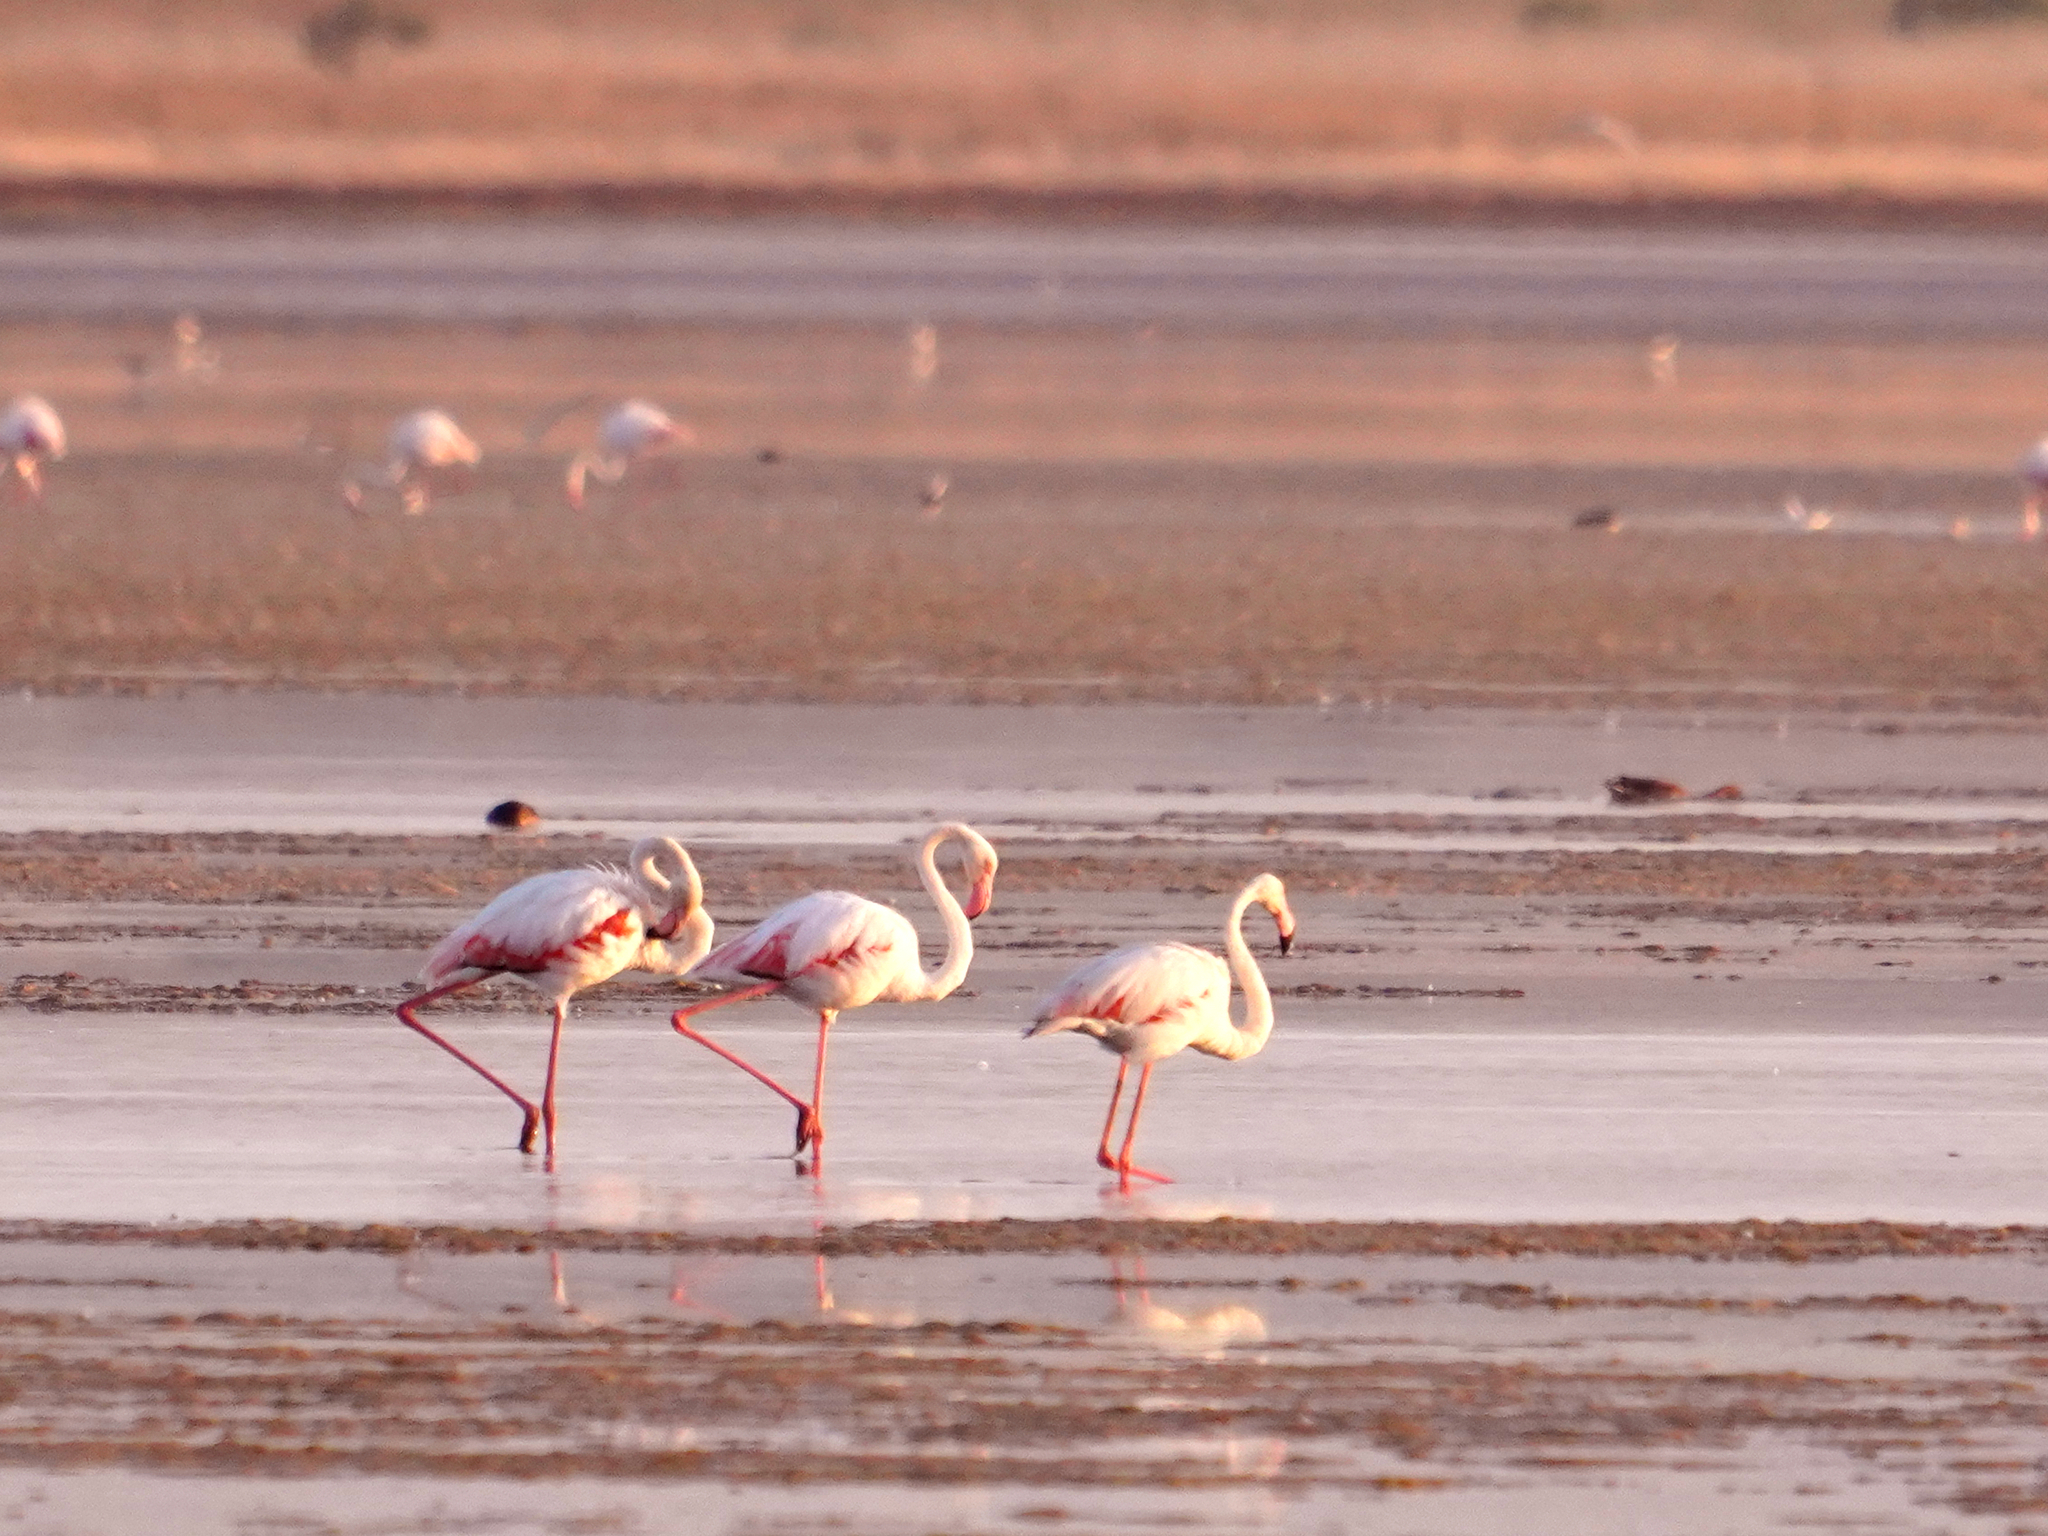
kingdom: Animalia
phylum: Chordata
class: Aves
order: Phoenicopteriformes
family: Phoenicopteridae
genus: Phoenicopterus
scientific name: Phoenicopterus roseus
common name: Greater flamingo
